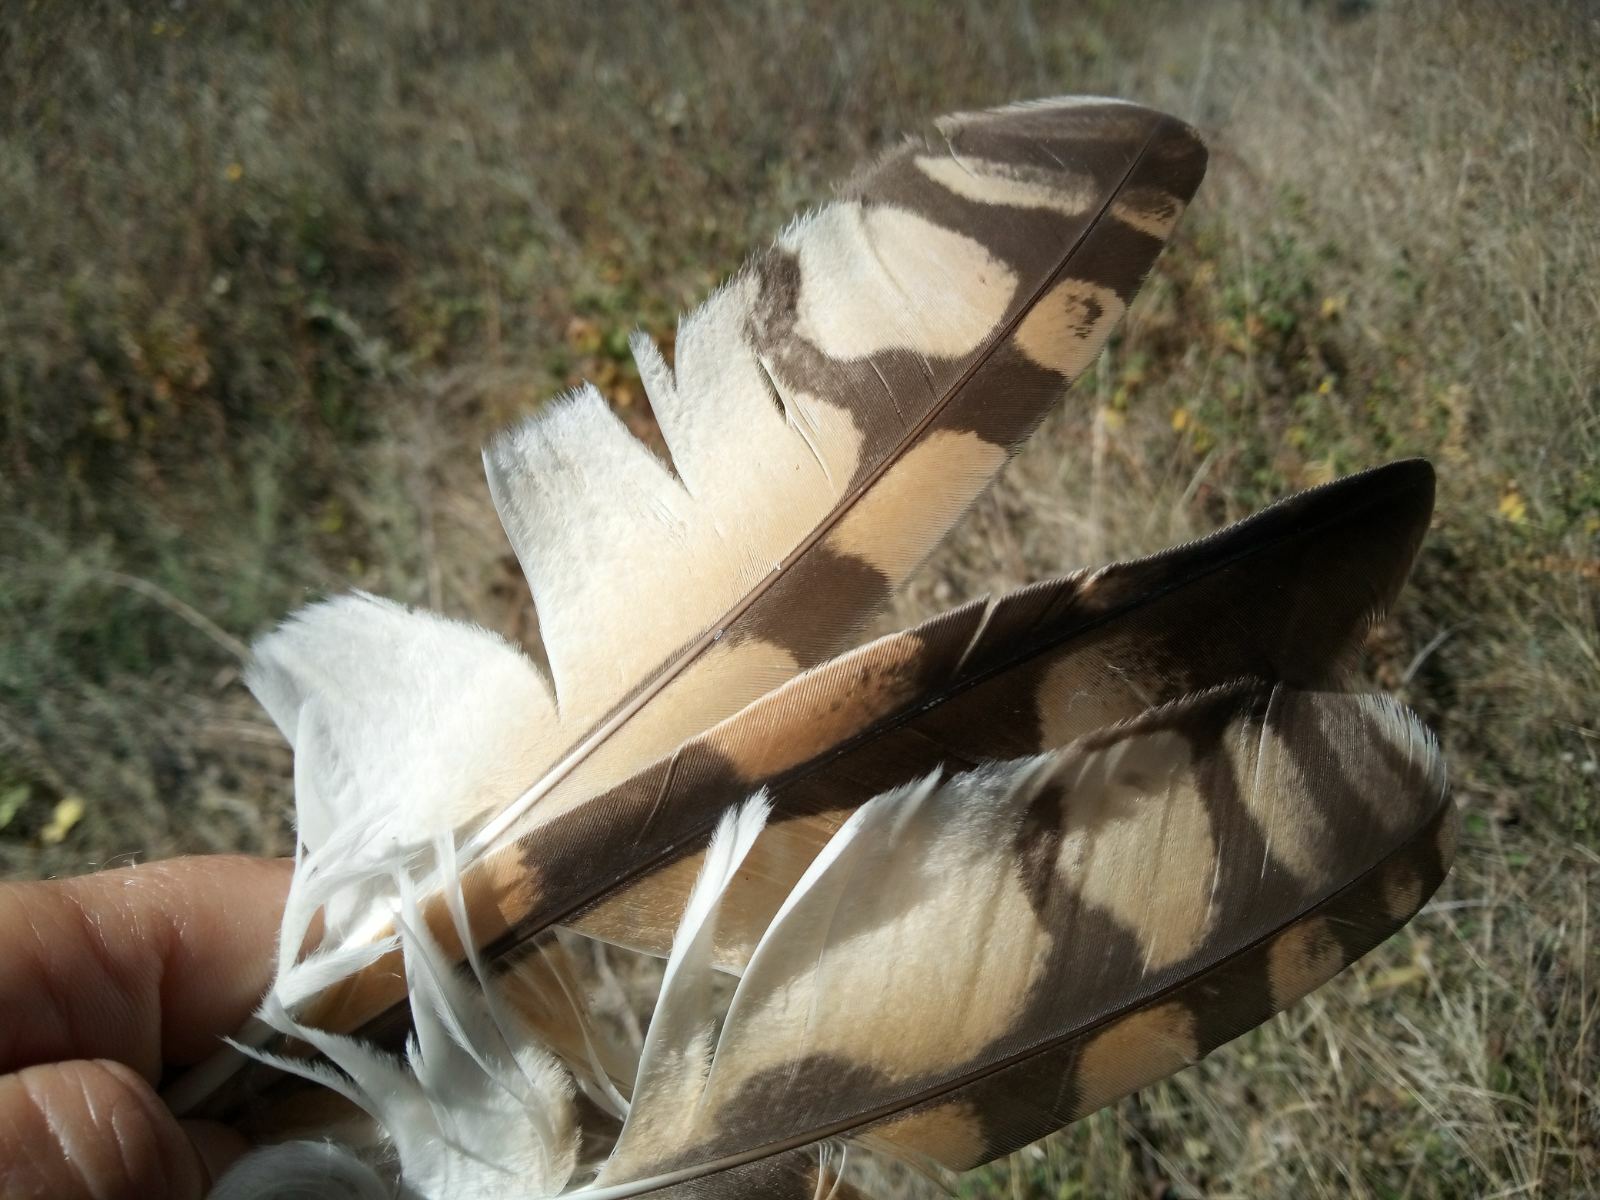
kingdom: Animalia
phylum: Chordata
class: Aves
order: Strigiformes
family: Strigidae
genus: Asio
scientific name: Asio flammeus
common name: Short-eared owl
